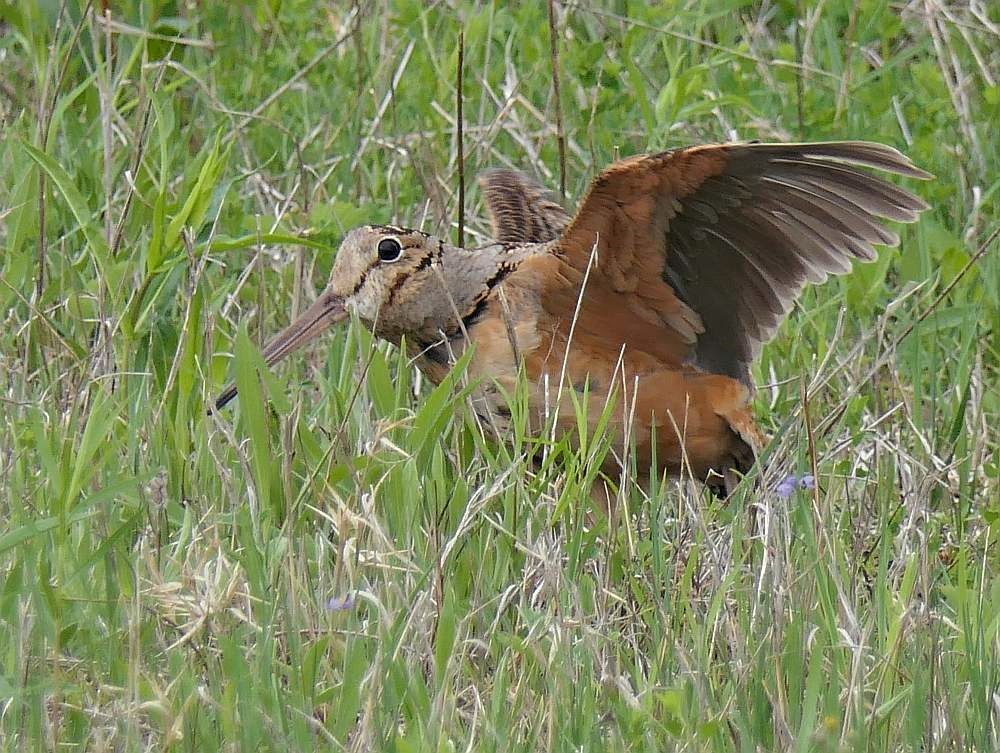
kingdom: Animalia
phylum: Chordata
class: Aves
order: Charadriiformes
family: Scolopacidae
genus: Scolopax
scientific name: Scolopax minor
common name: American woodcock
